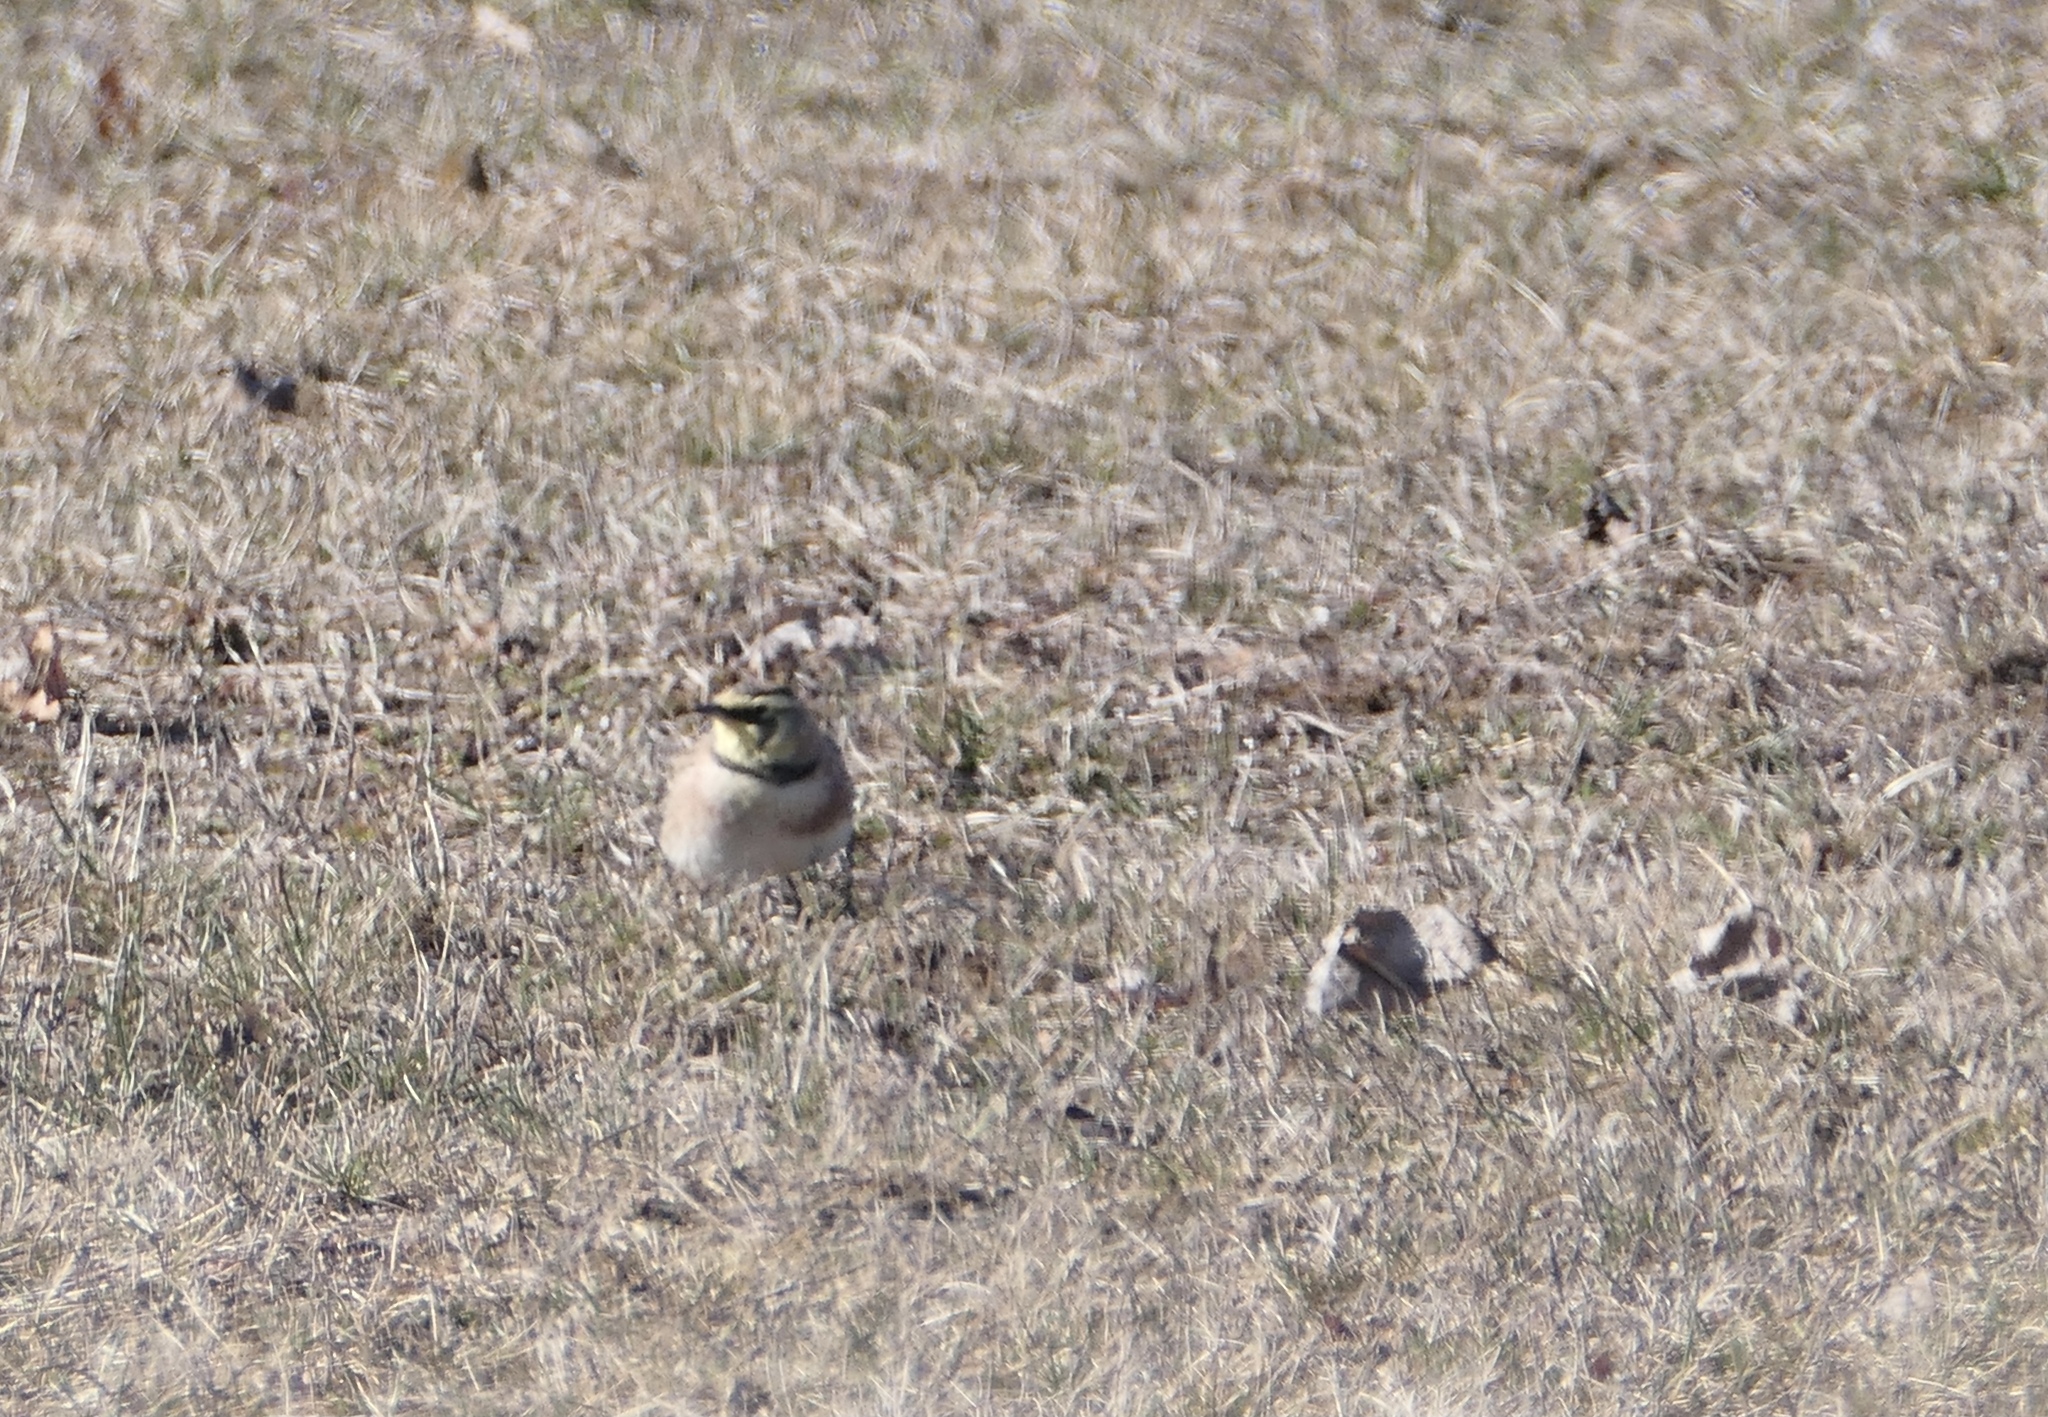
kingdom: Animalia
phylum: Chordata
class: Aves
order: Passeriformes
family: Alaudidae
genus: Eremophila
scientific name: Eremophila alpestris
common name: Horned lark
